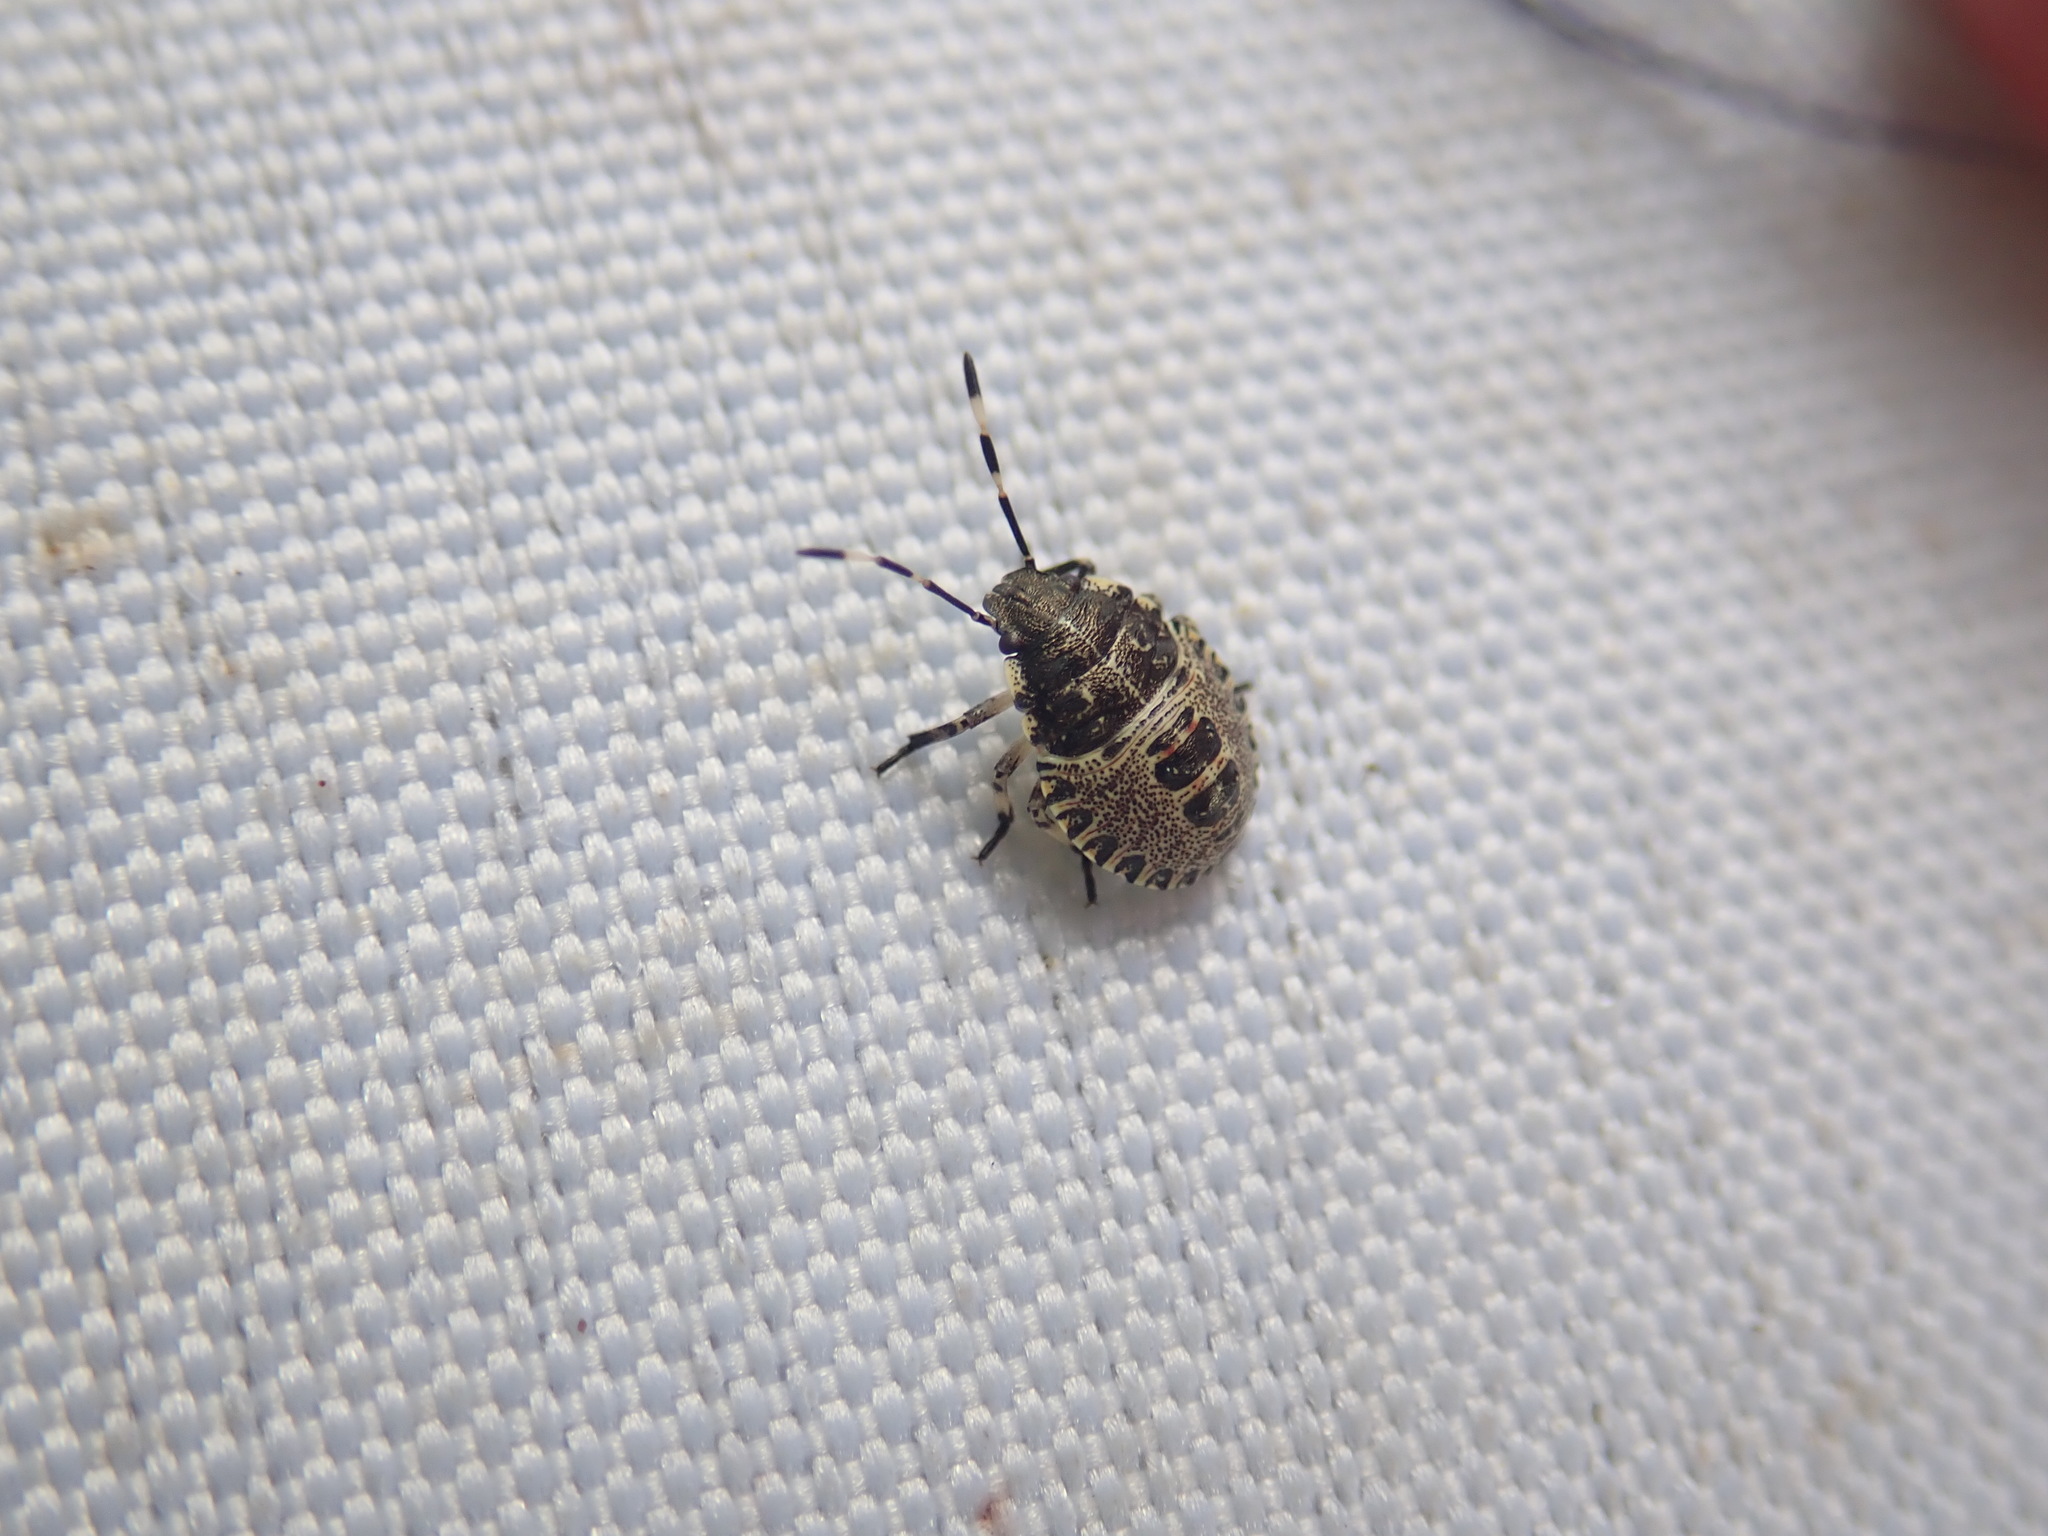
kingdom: Animalia
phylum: Arthropoda
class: Insecta
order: Hemiptera
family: Pentatomidae
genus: Rhaphigaster
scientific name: Rhaphigaster nebulosa
